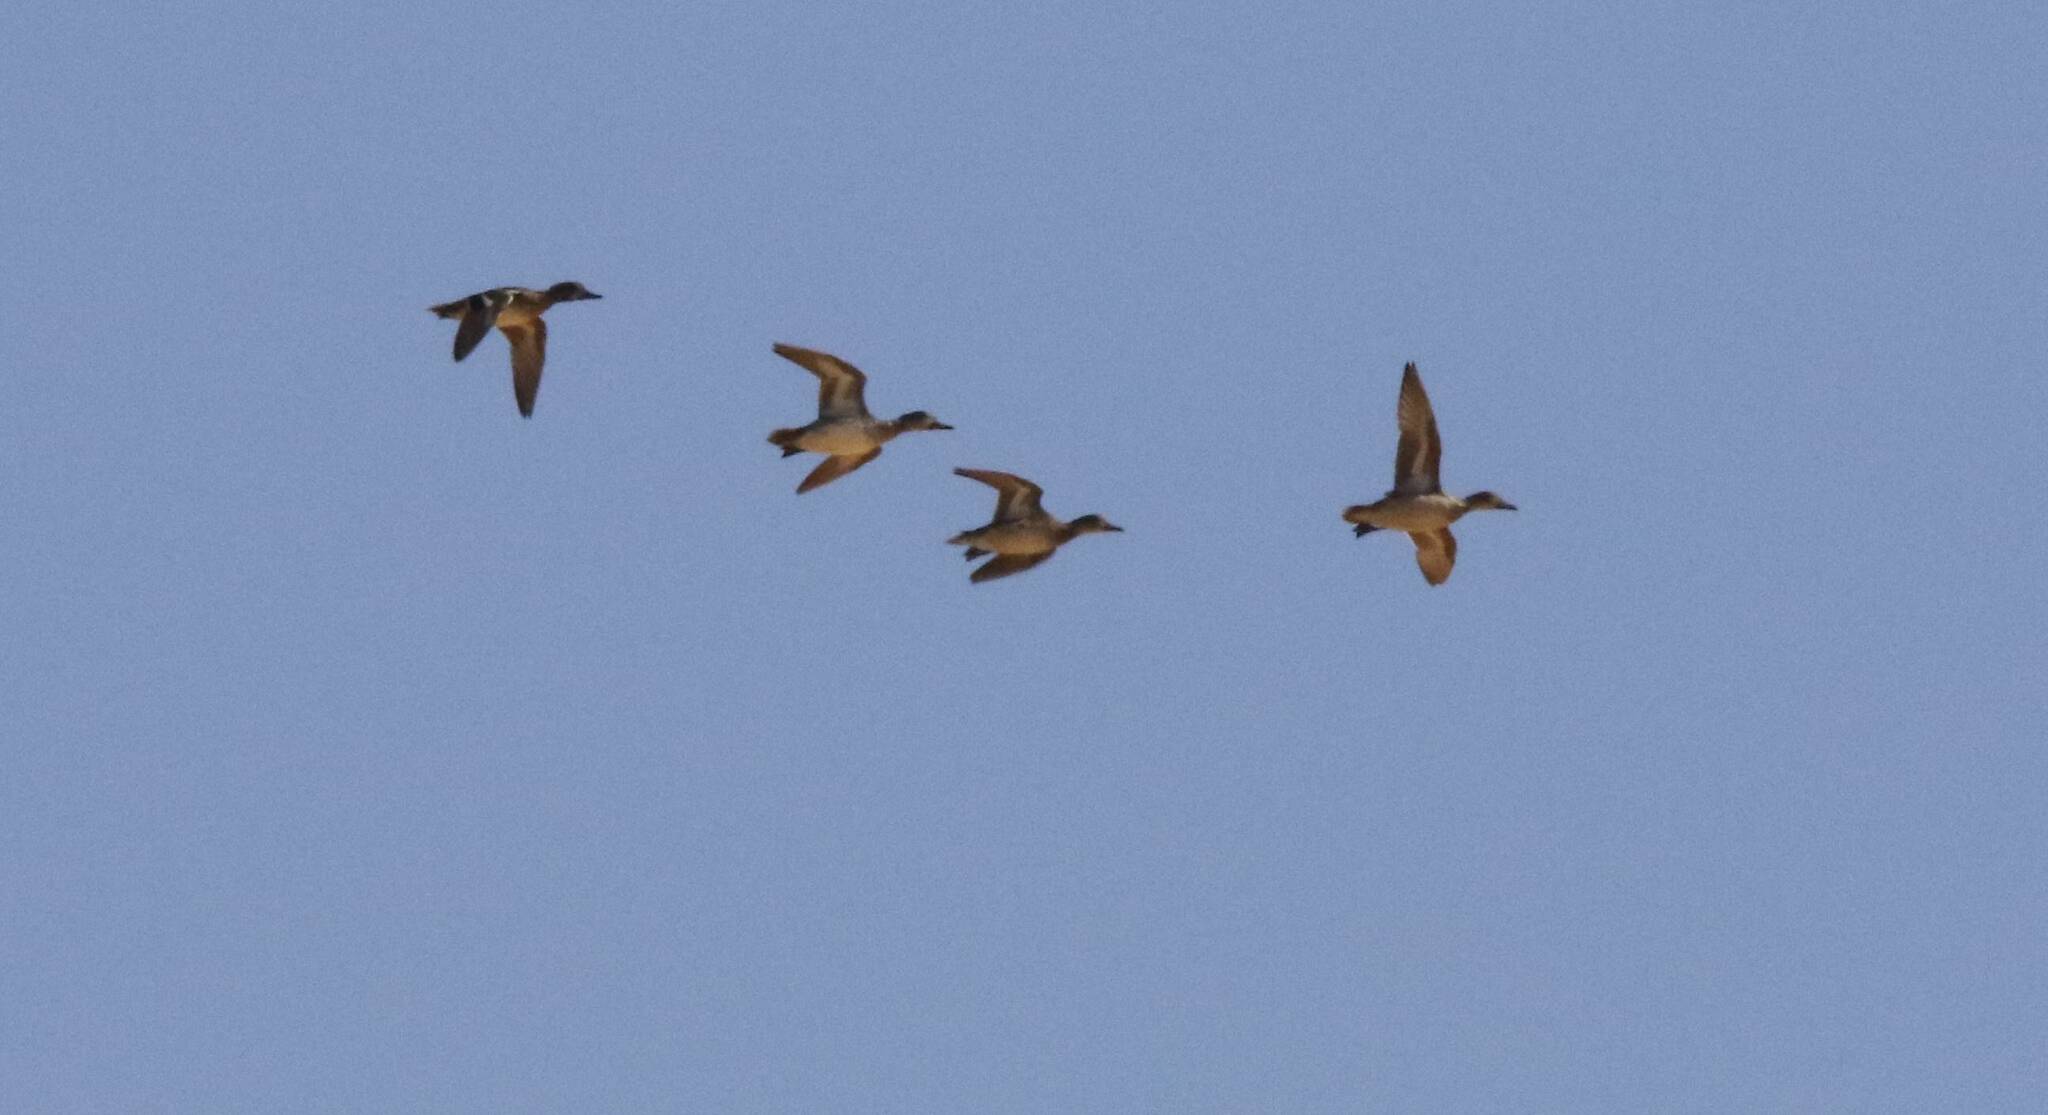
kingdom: Animalia
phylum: Chordata
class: Aves
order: Anseriformes
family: Anatidae
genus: Anas
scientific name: Anas crecca
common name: Eurasian teal
